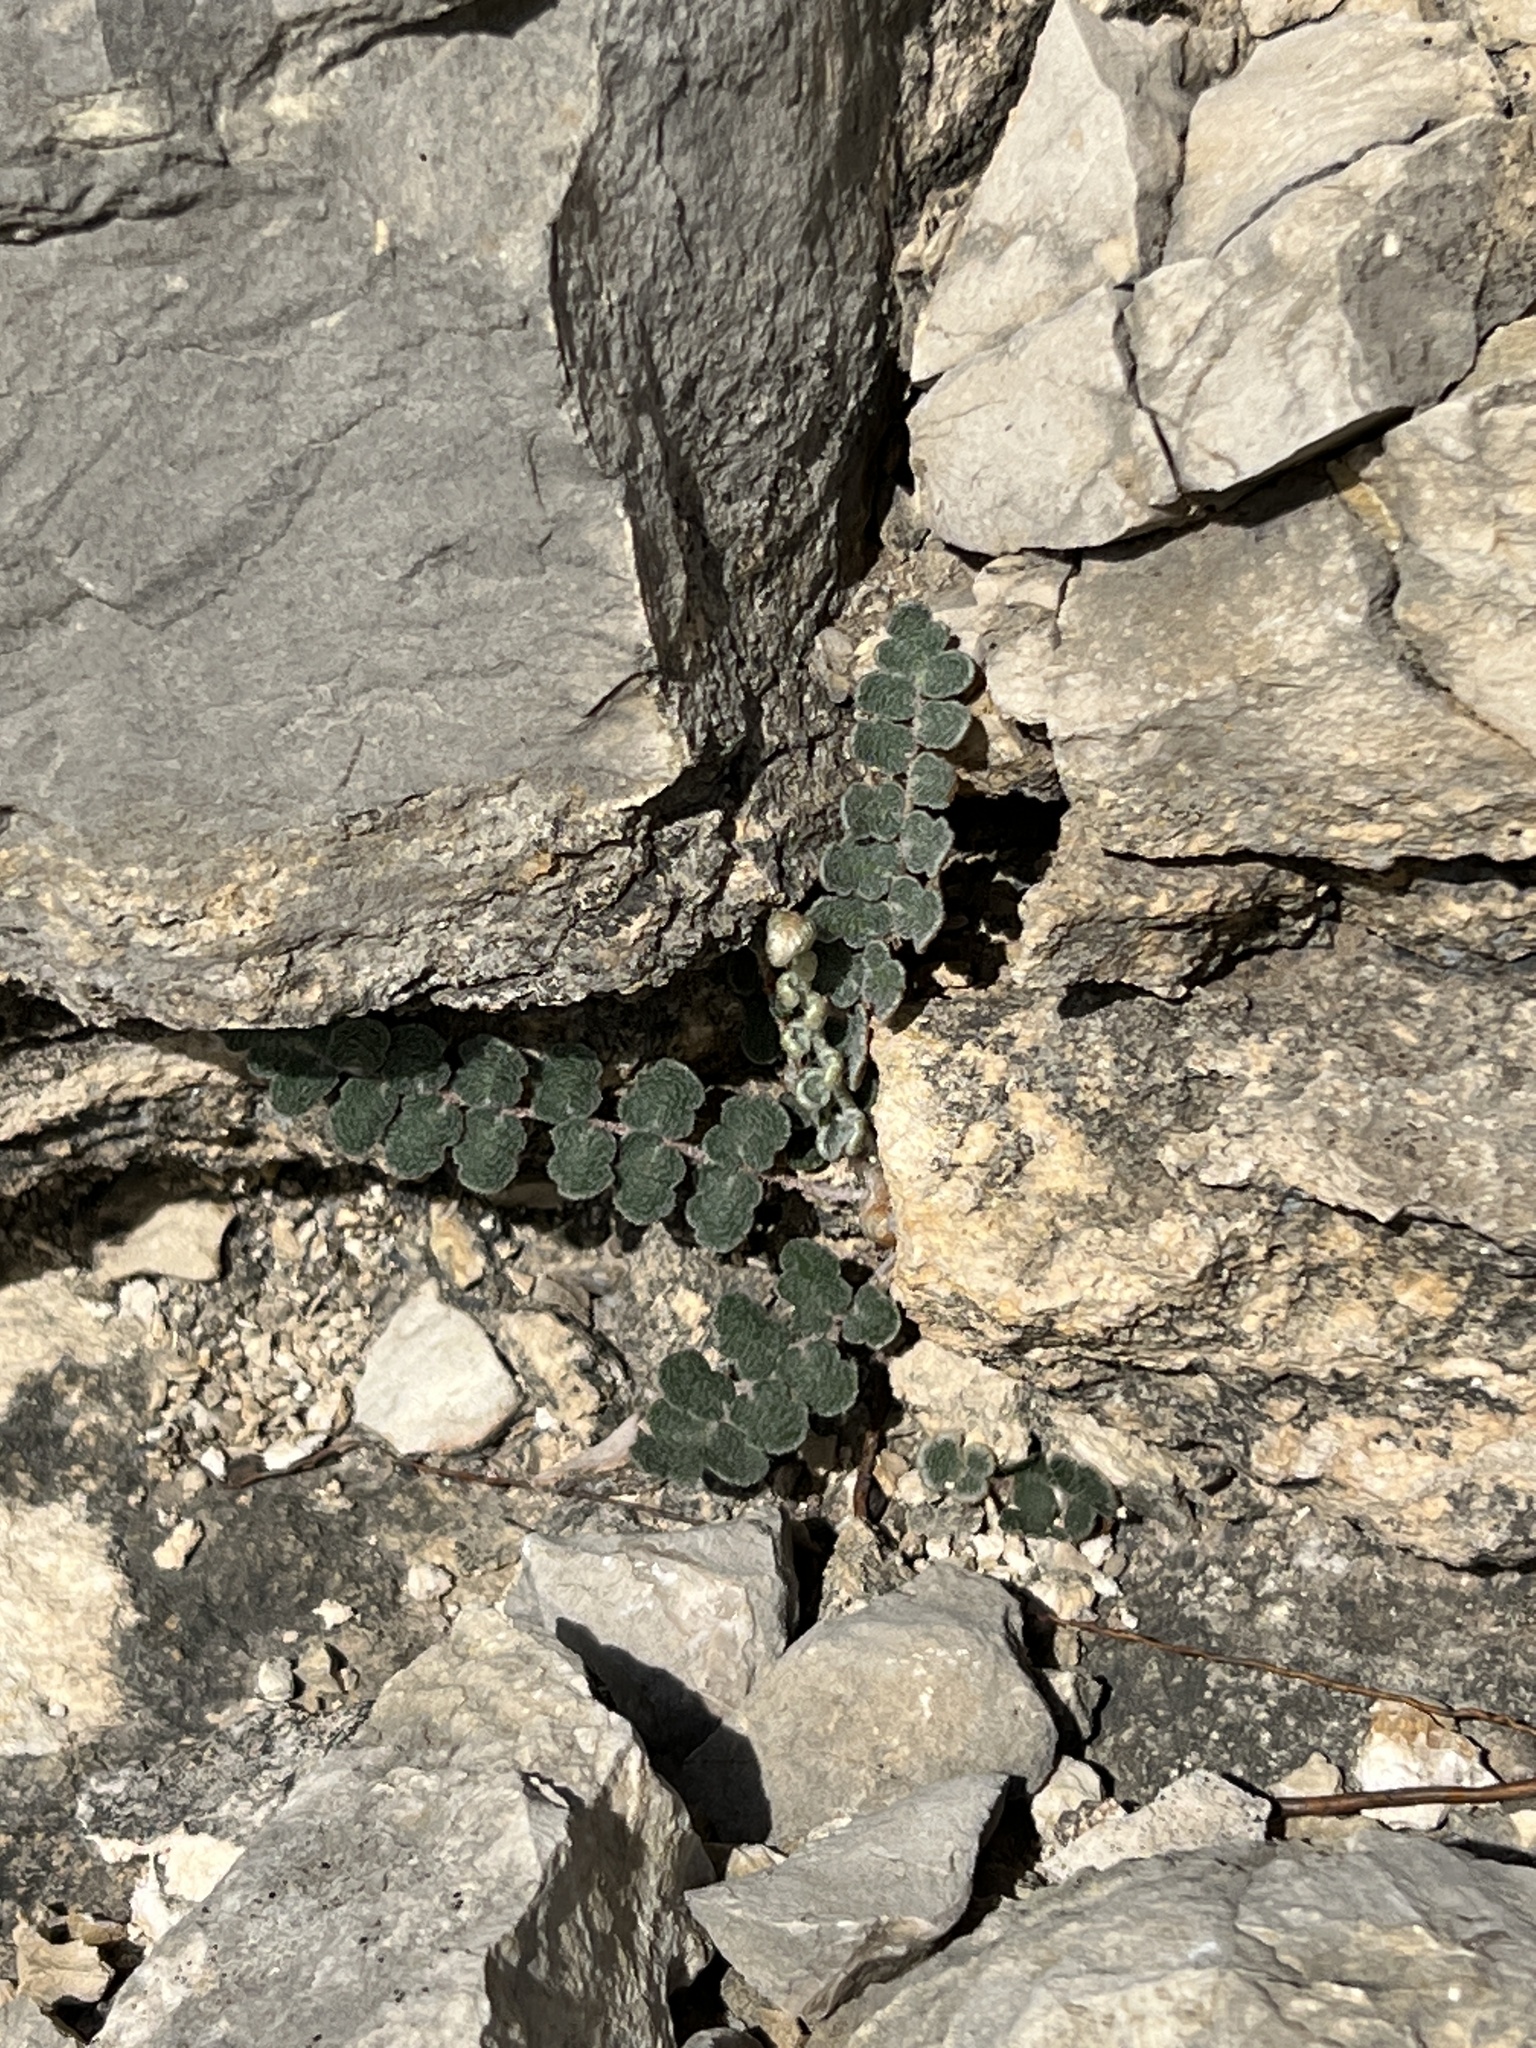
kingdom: Plantae
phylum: Tracheophyta
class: Polypodiopsida
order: Polypodiales
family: Pteridaceae
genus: Astrolepis
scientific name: Astrolepis cochisensis
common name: Scaly cloak fern
